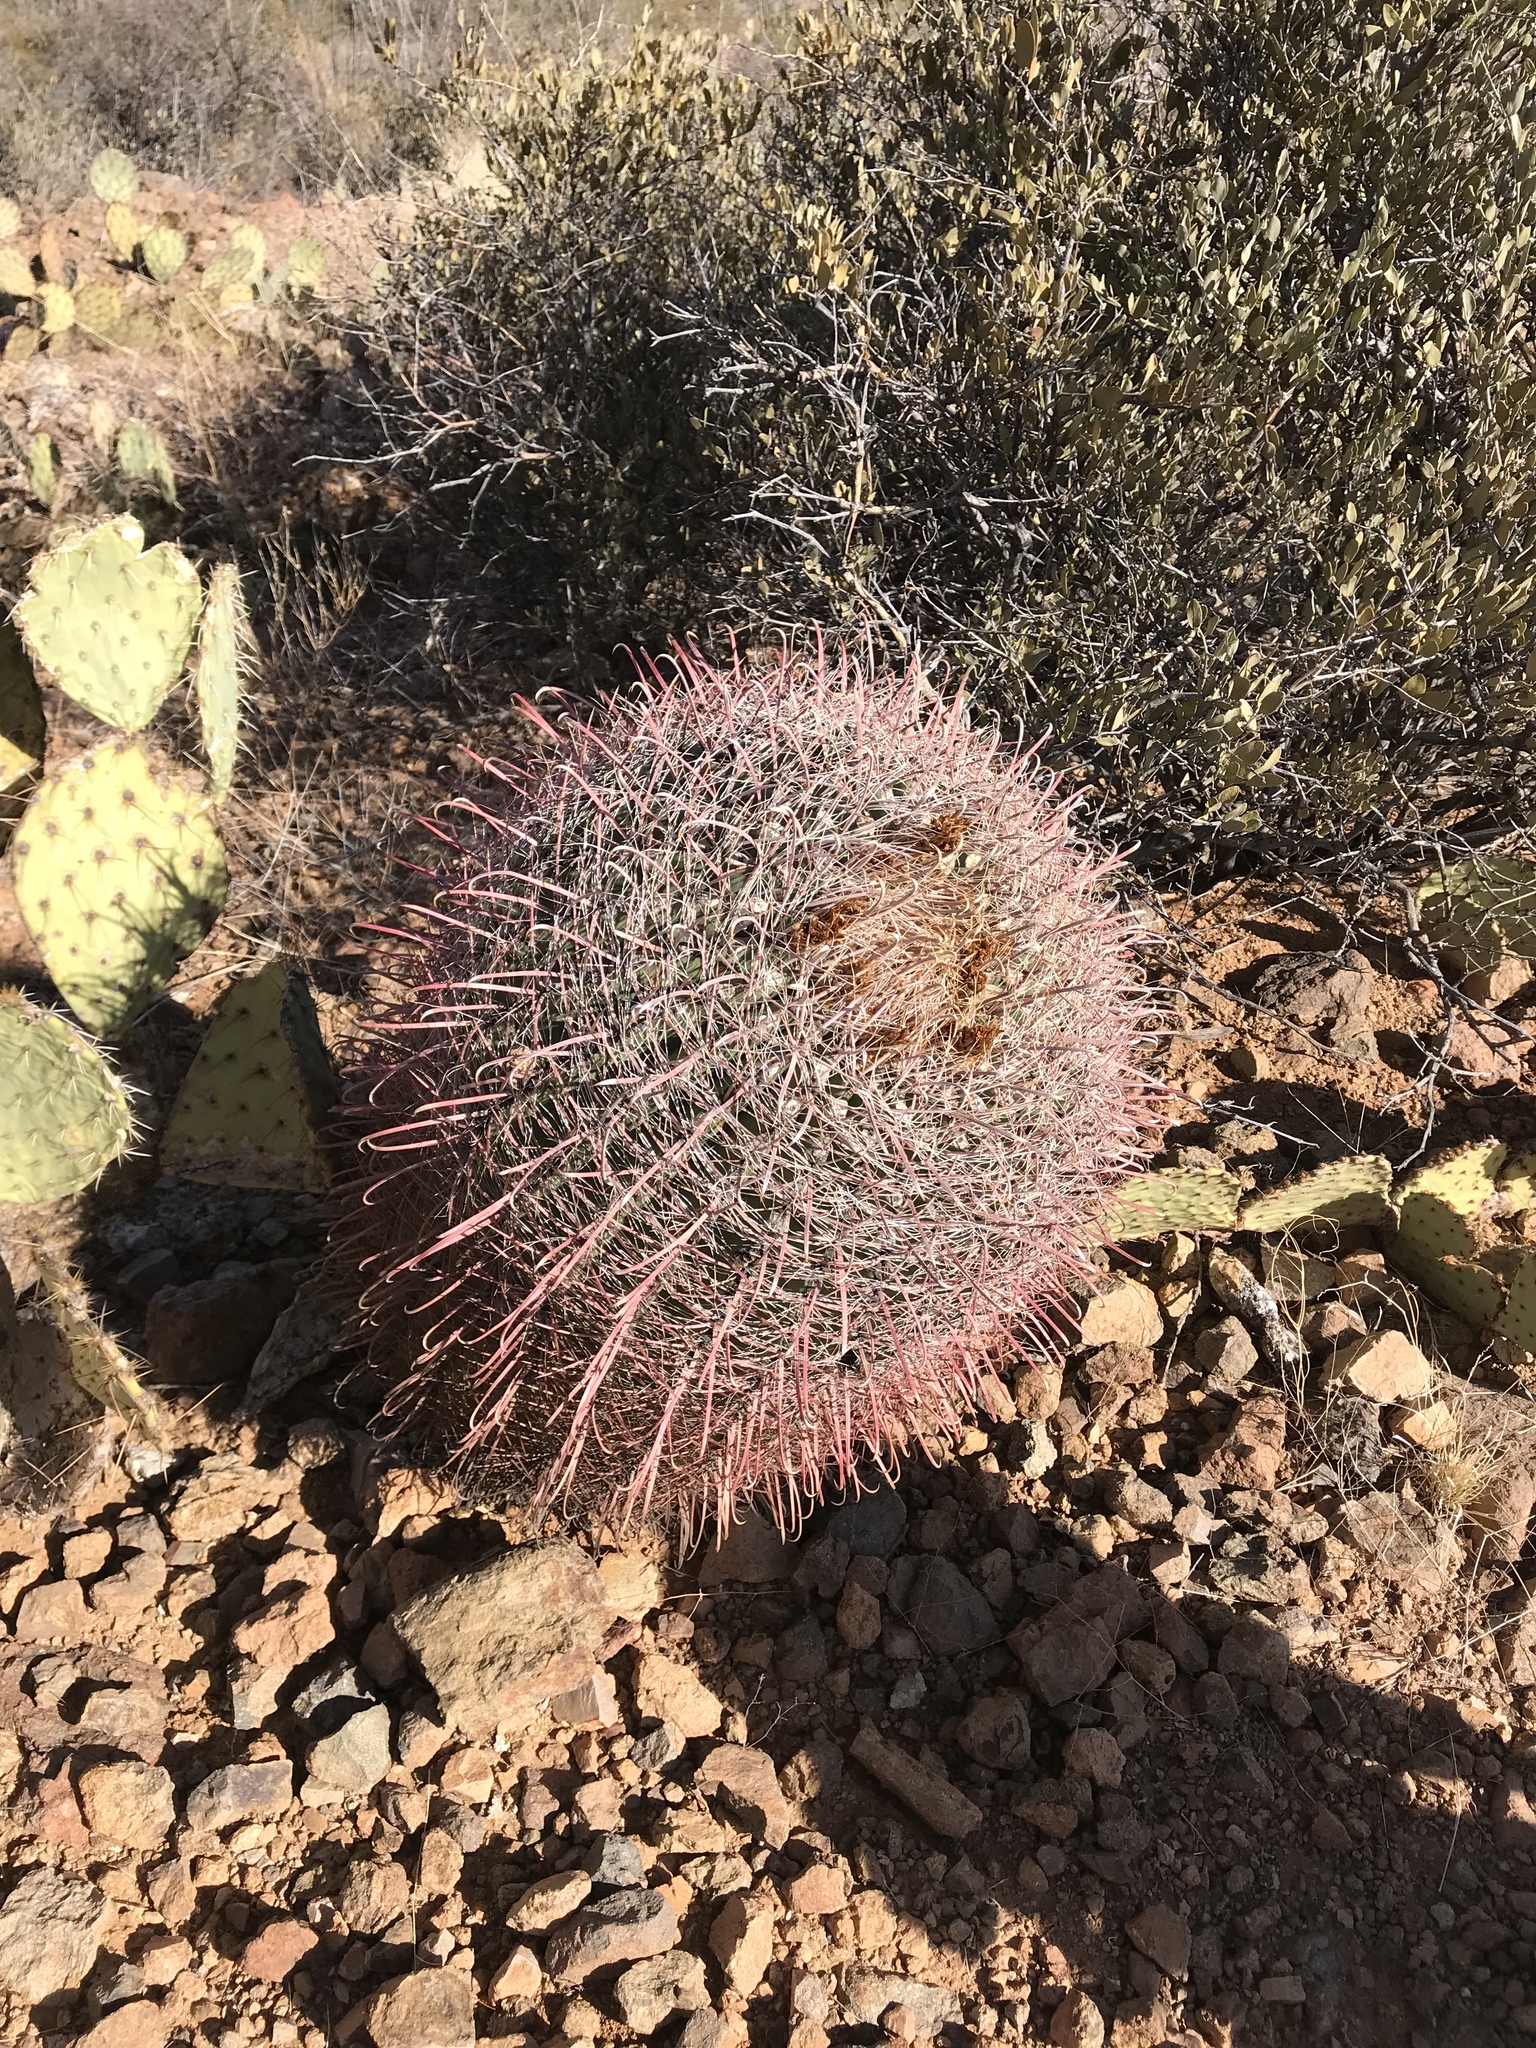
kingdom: Plantae
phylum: Tracheophyta
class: Magnoliopsida
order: Caryophyllales
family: Cactaceae
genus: Ferocactus
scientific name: Ferocactus wislizeni
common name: Candy barrel cactus
